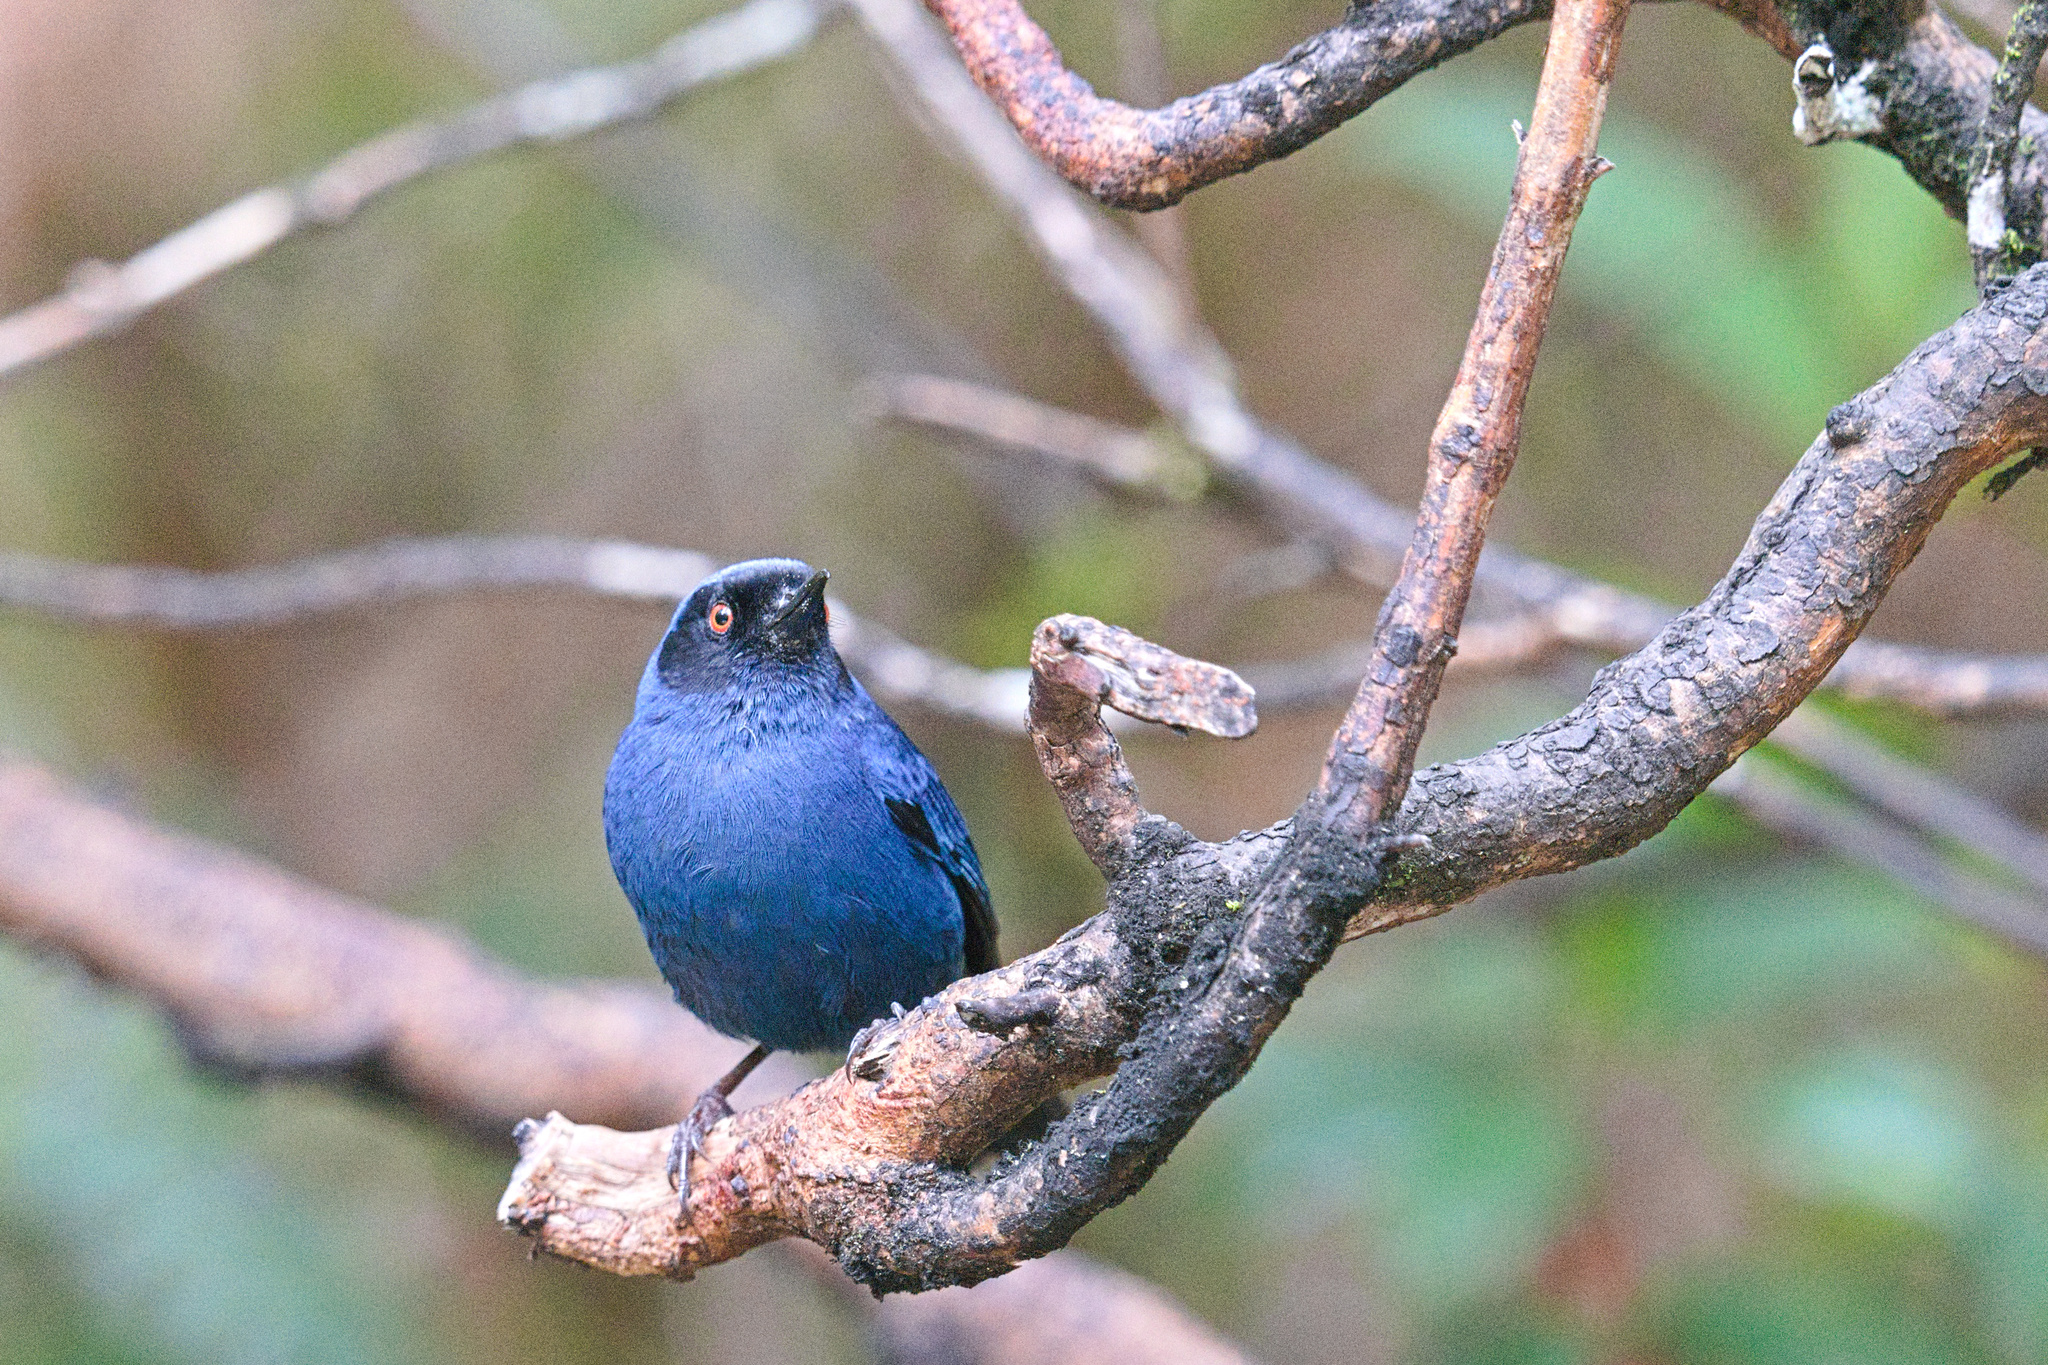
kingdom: Animalia
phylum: Chordata
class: Aves
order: Passeriformes
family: Thraupidae
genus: Diglossa
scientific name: Diglossa cyanea
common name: Masked flowerpiercer
